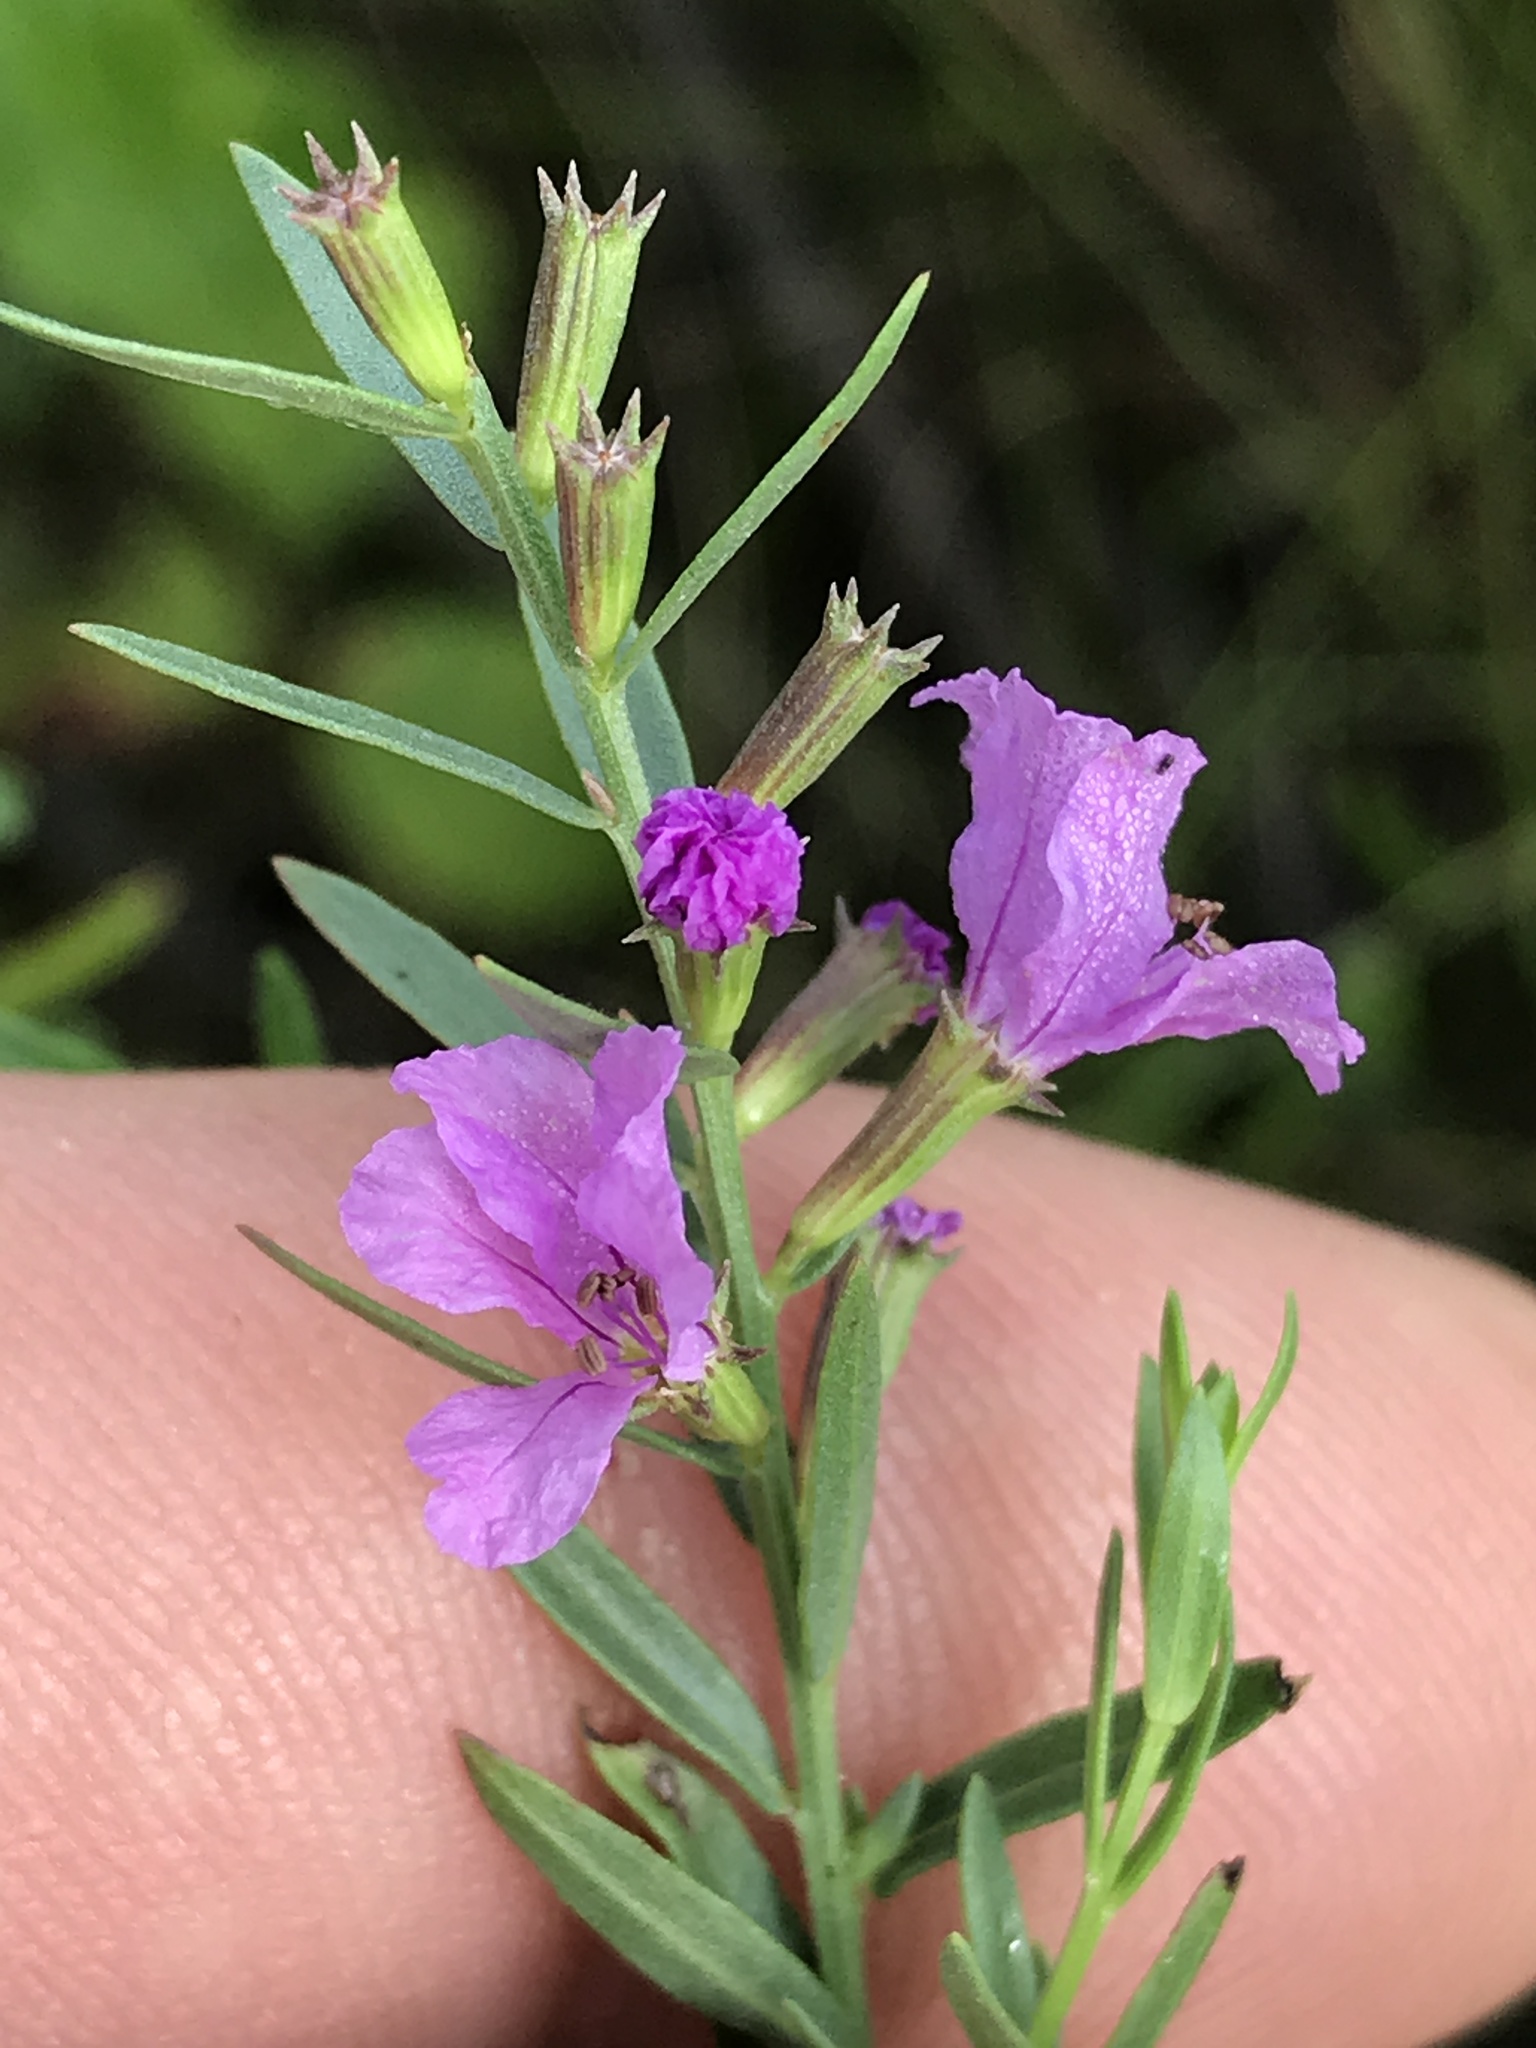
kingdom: Plantae
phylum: Tracheophyta
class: Magnoliopsida
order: Myrtales
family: Lythraceae
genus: Lythrum
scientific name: Lythrum alatum
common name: Winged loosestrife
